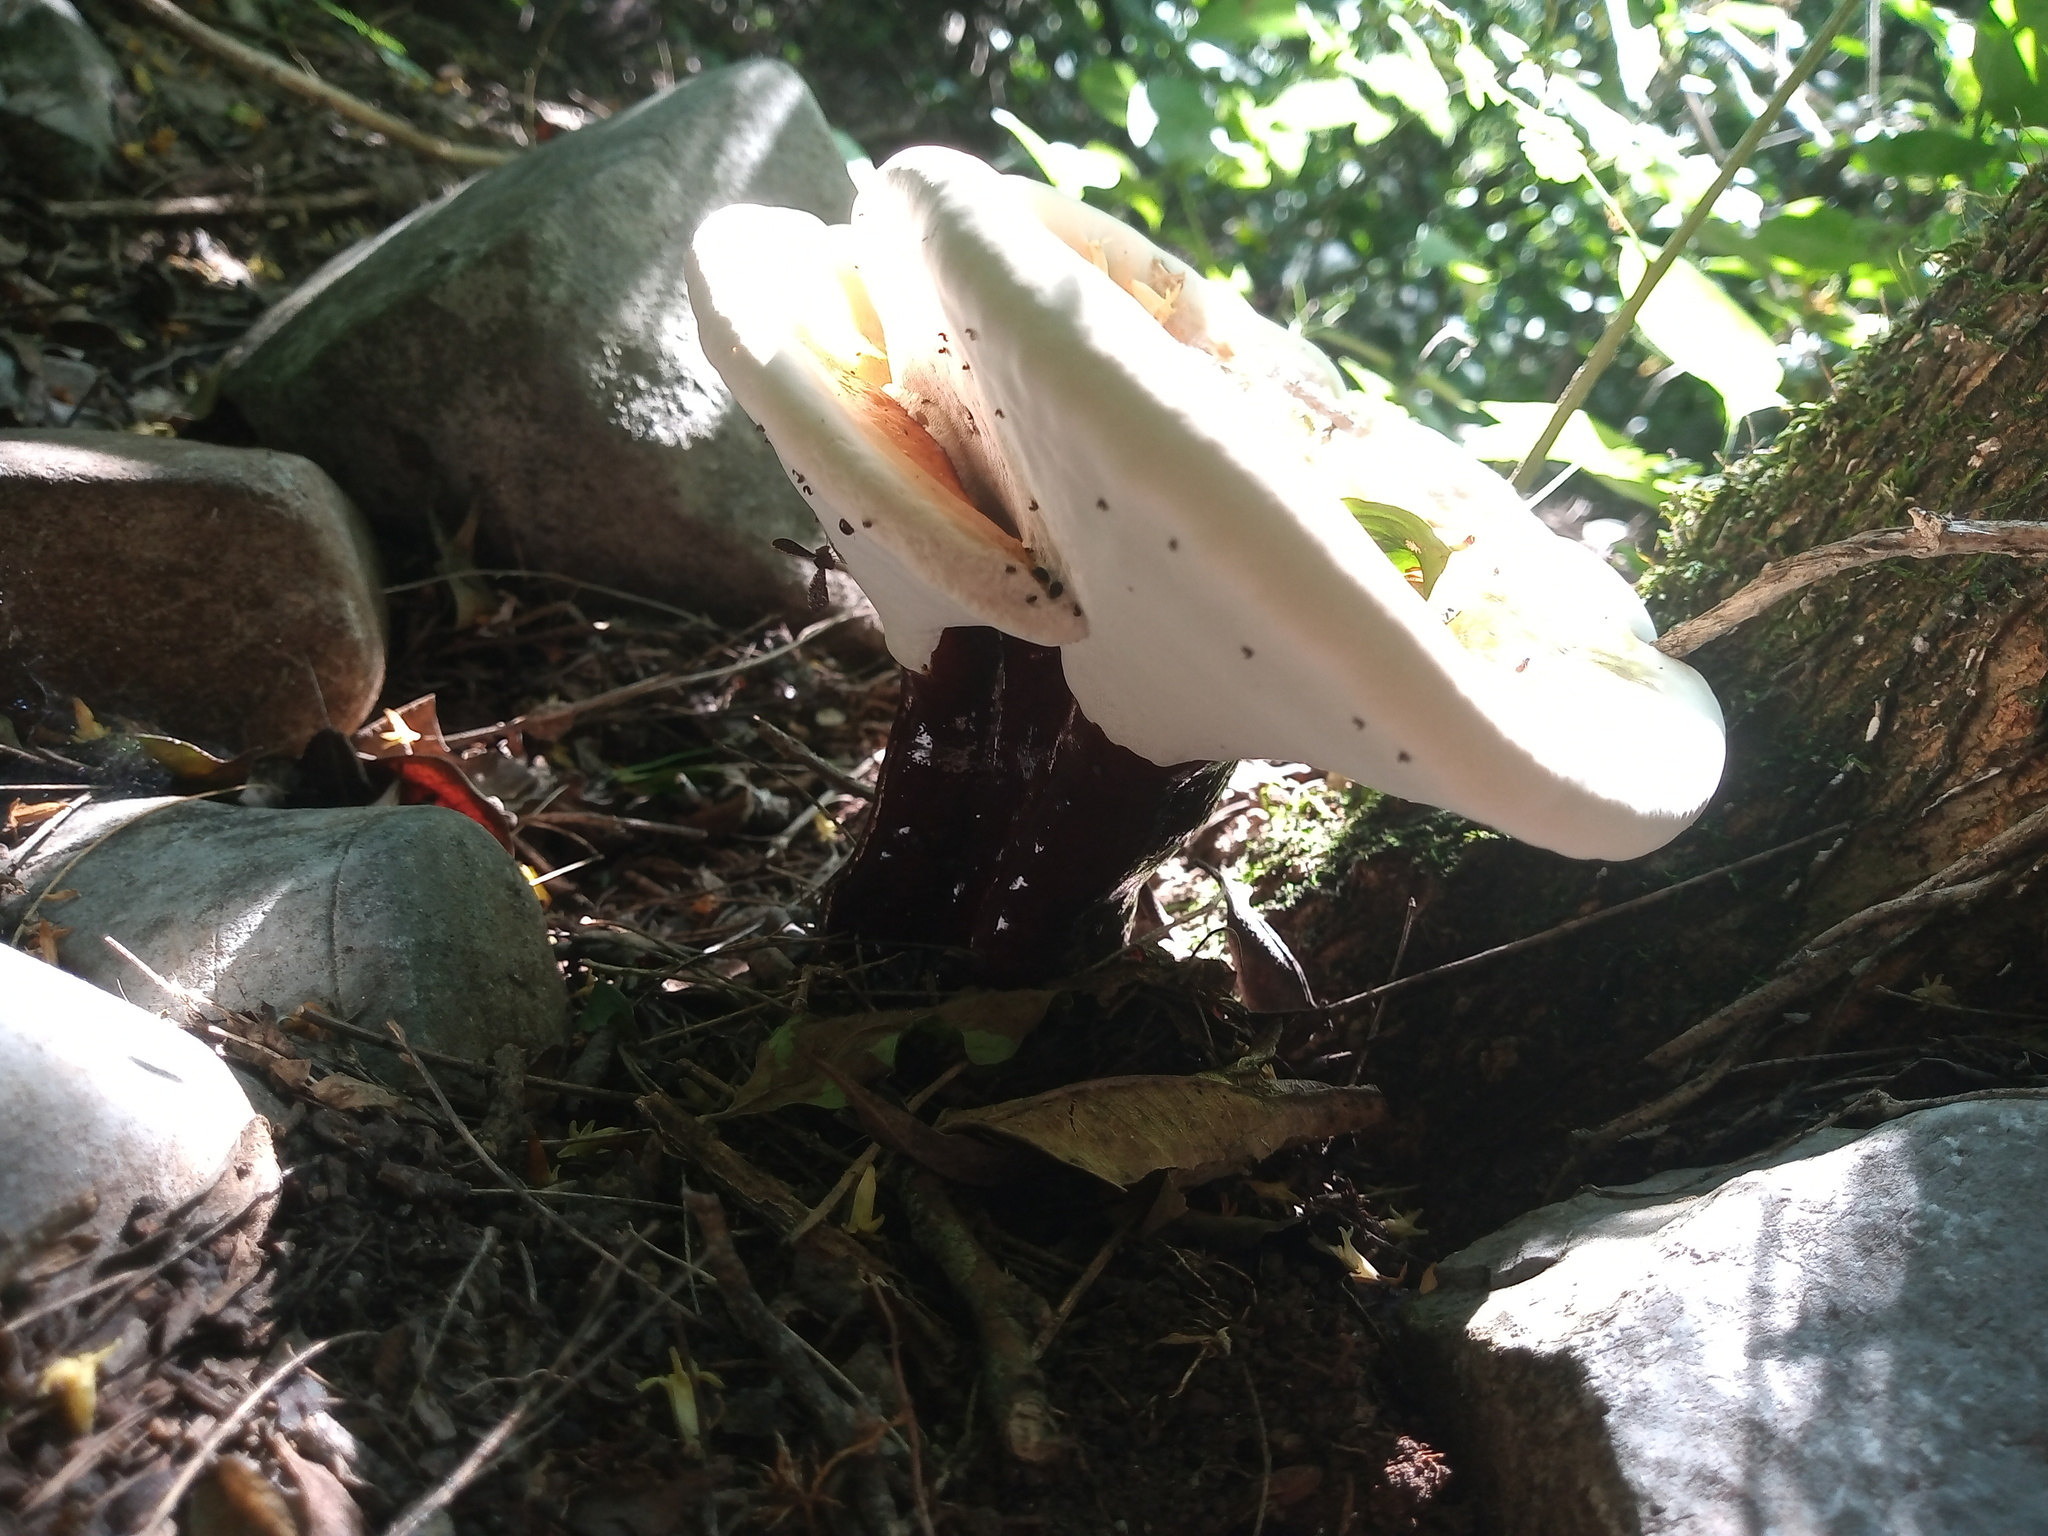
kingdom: Fungi
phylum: Basidiomycota
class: Agaricomycetes
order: Polyporales
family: Polyporaceae
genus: Ganoderma
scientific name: Ganoderma tsugae
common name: Hemlock varnish shelf
